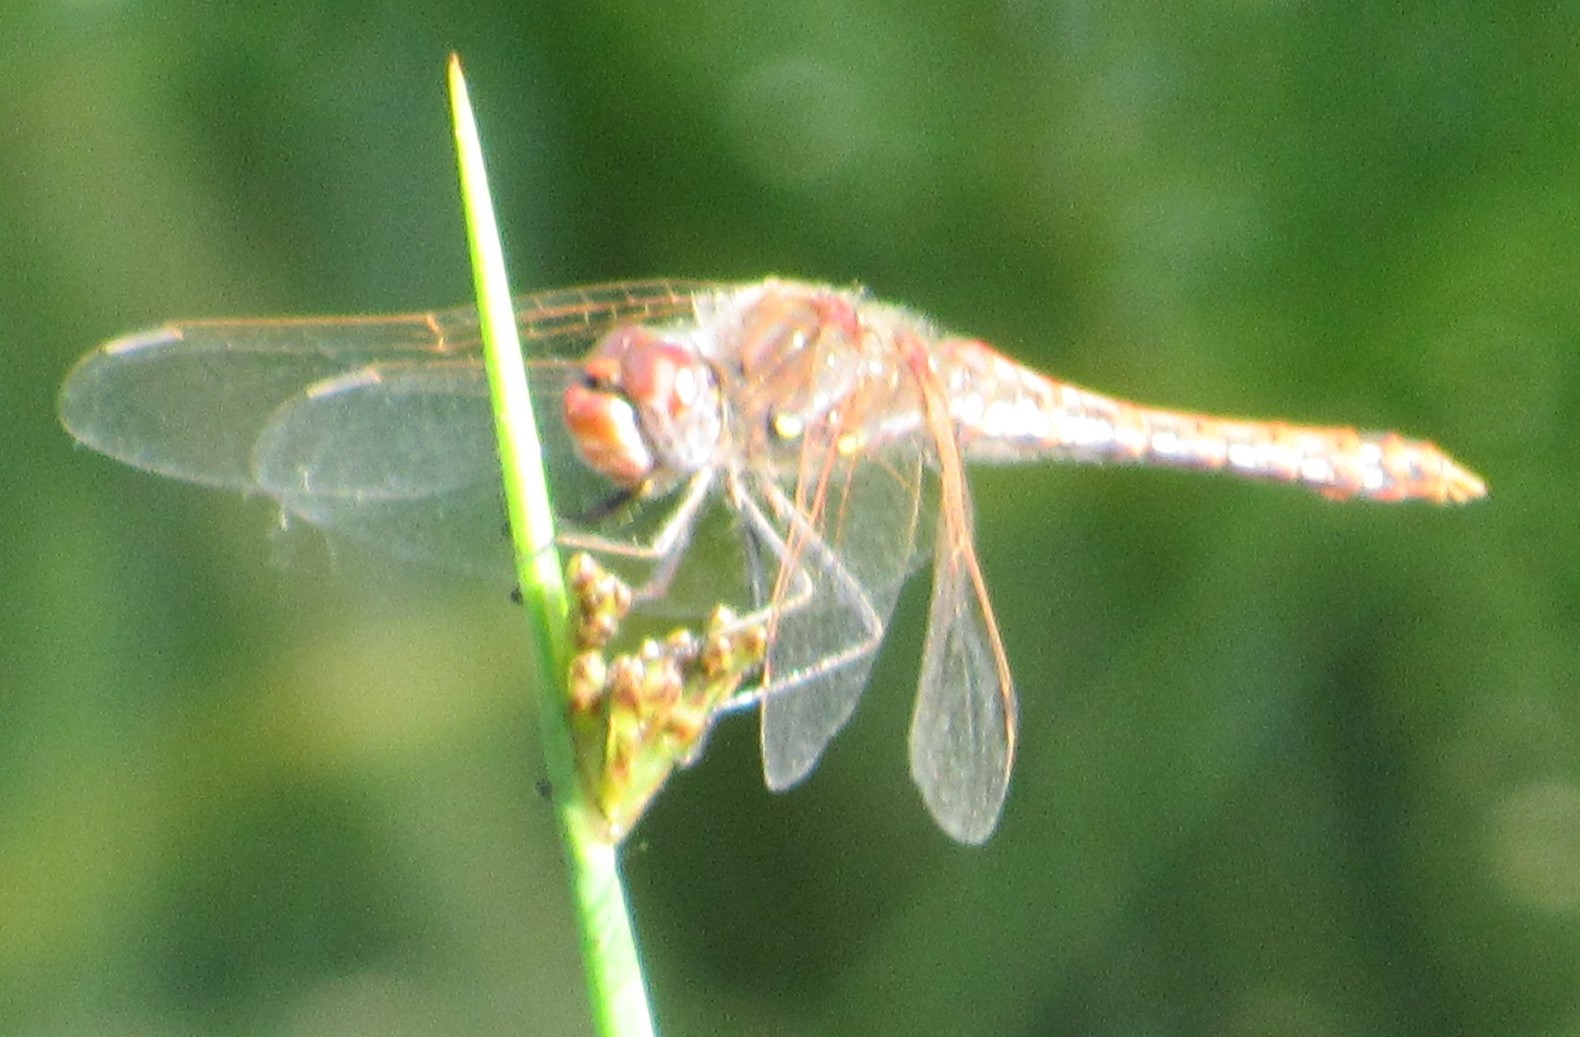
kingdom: Animalia
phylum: Arthropoda
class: Insecta
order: Odonata
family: Libellulidae
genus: Sympetrum
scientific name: Sympetrum corruptum
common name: Variegated meadowhawk
